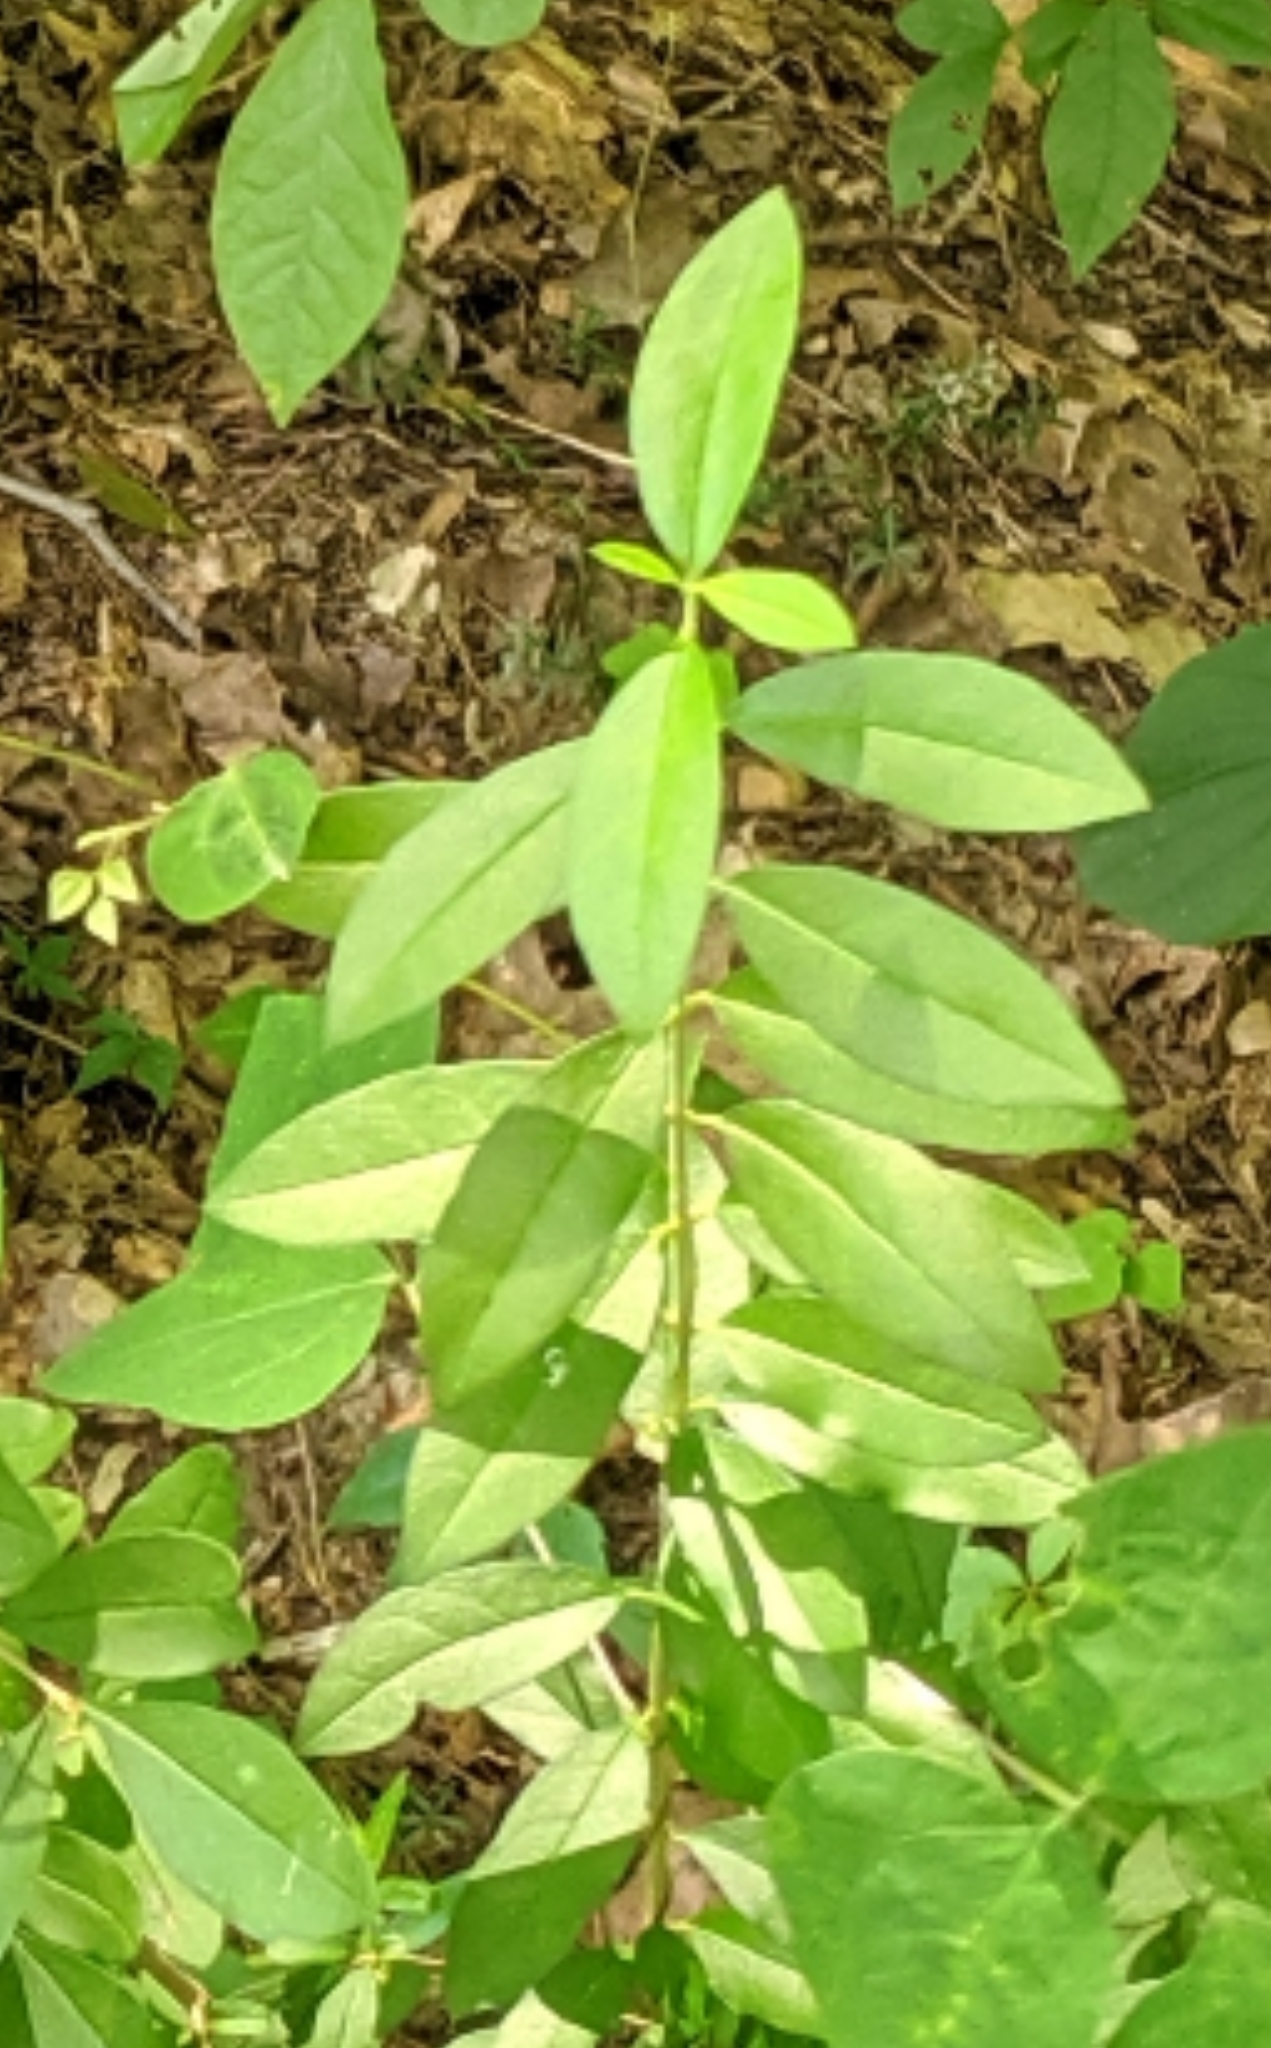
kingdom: Plantae
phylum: Tracheophyta
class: Magnoliopsida
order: Lamiales
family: Oleaceae
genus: Ligustrum
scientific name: Ligustrum vulgare
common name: Wild privet
